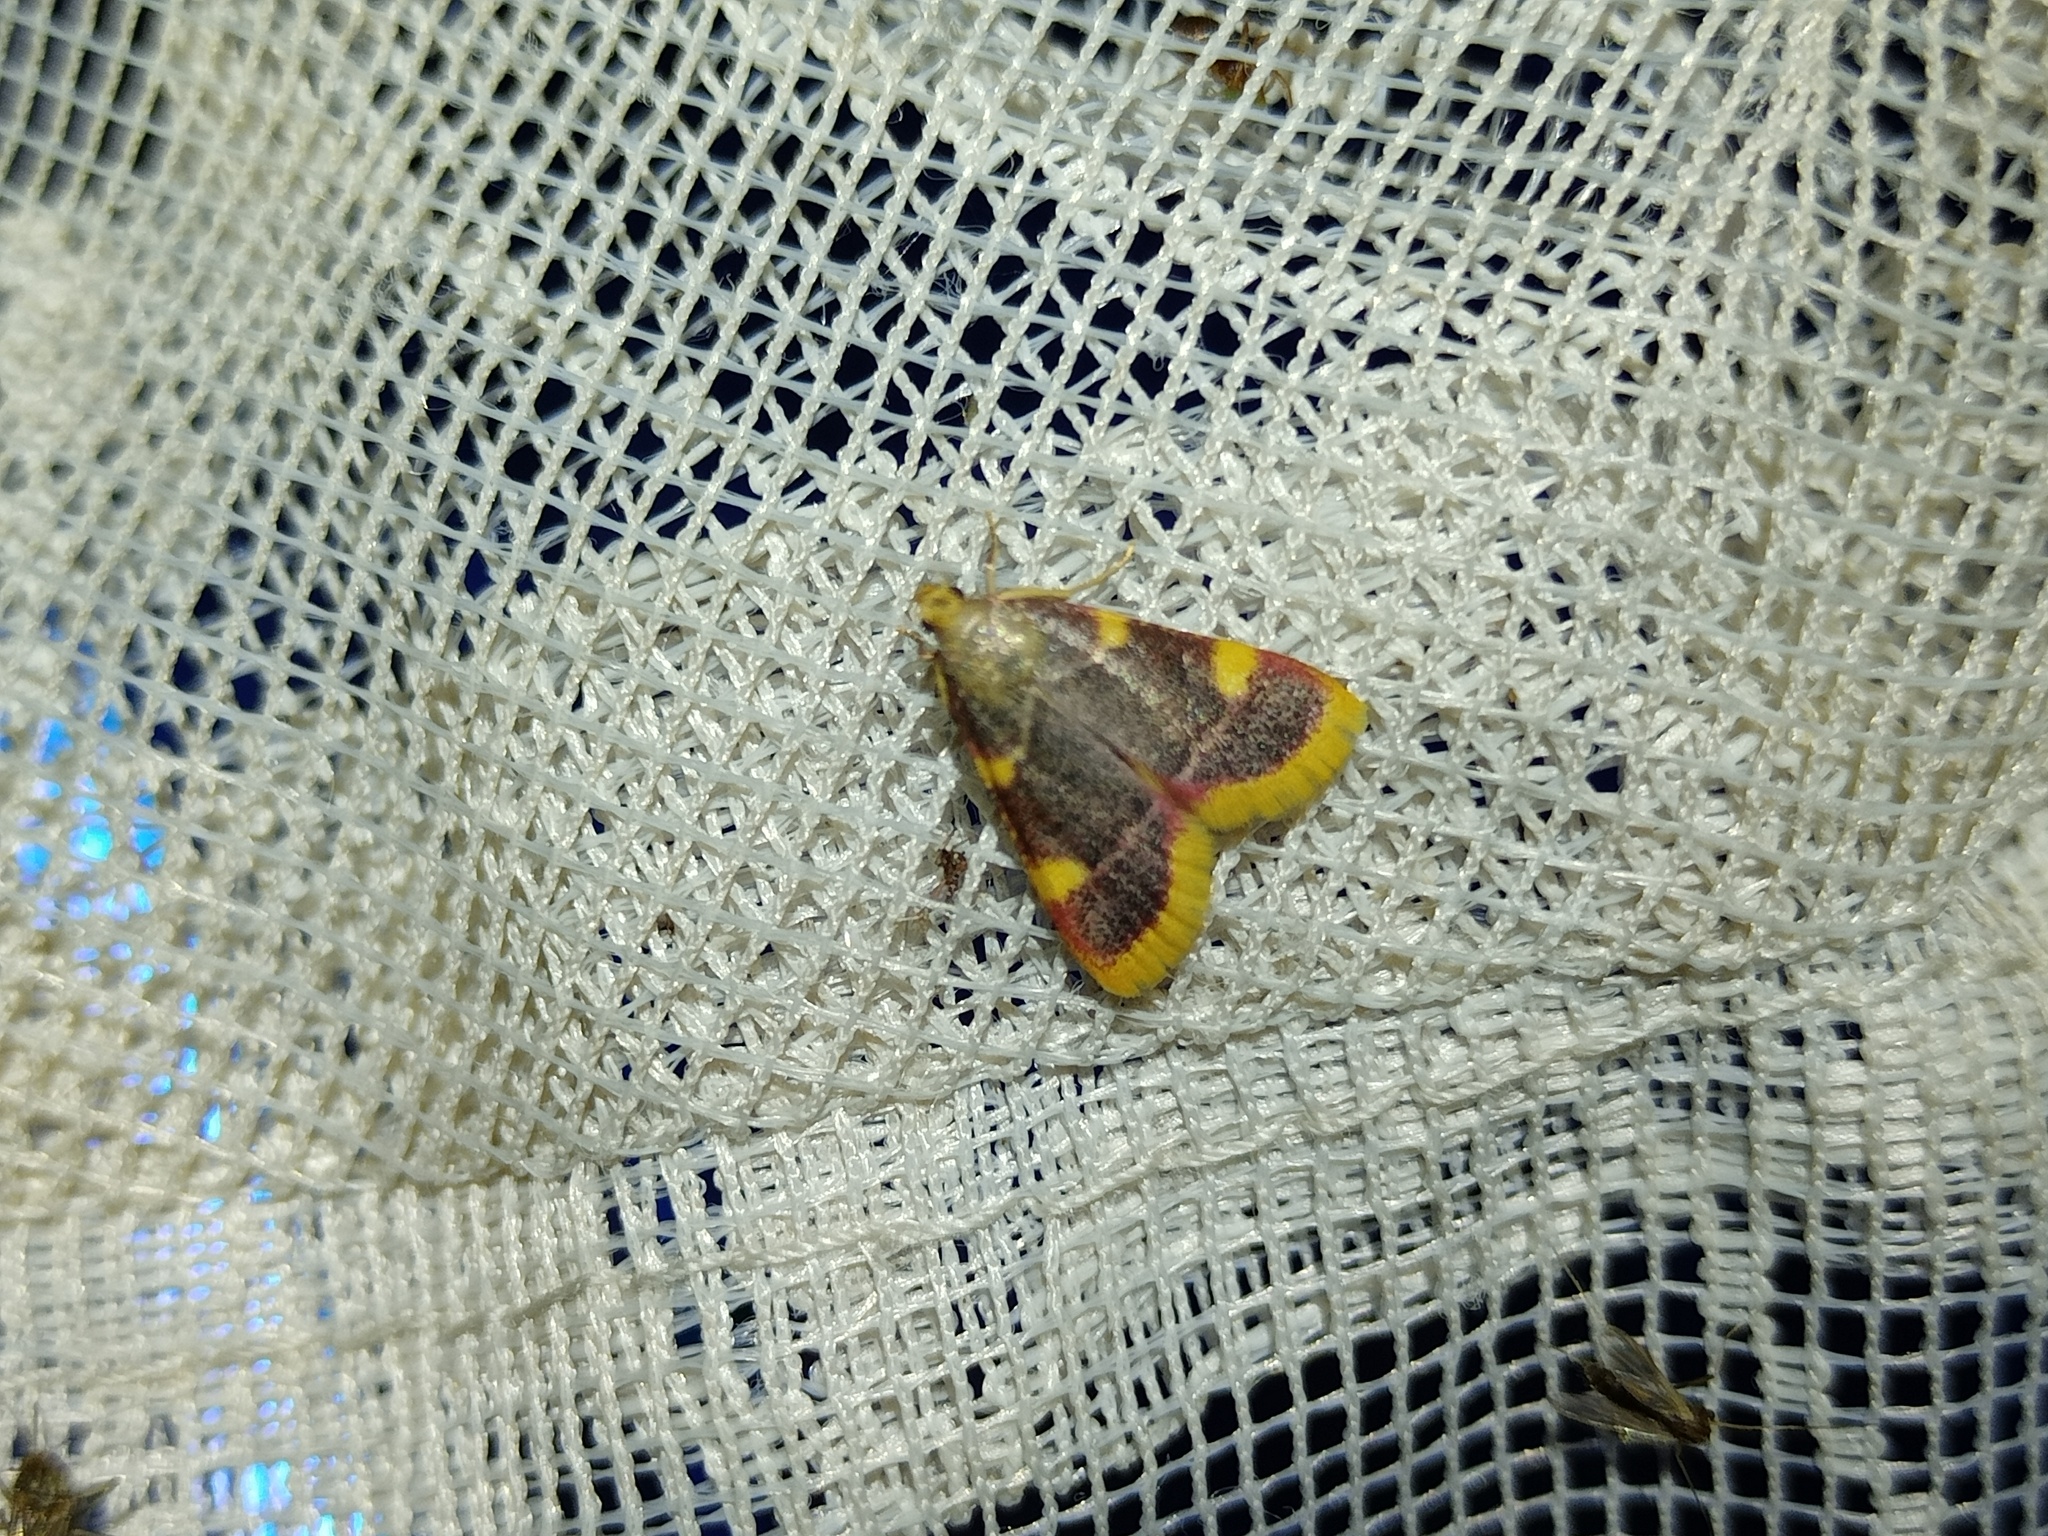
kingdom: Animalia
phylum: Arthropoda
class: Insecta
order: Lepidoptera
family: Pyralidae
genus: Hypsopygia
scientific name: Hypsopygia costalis
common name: Gold triangle
